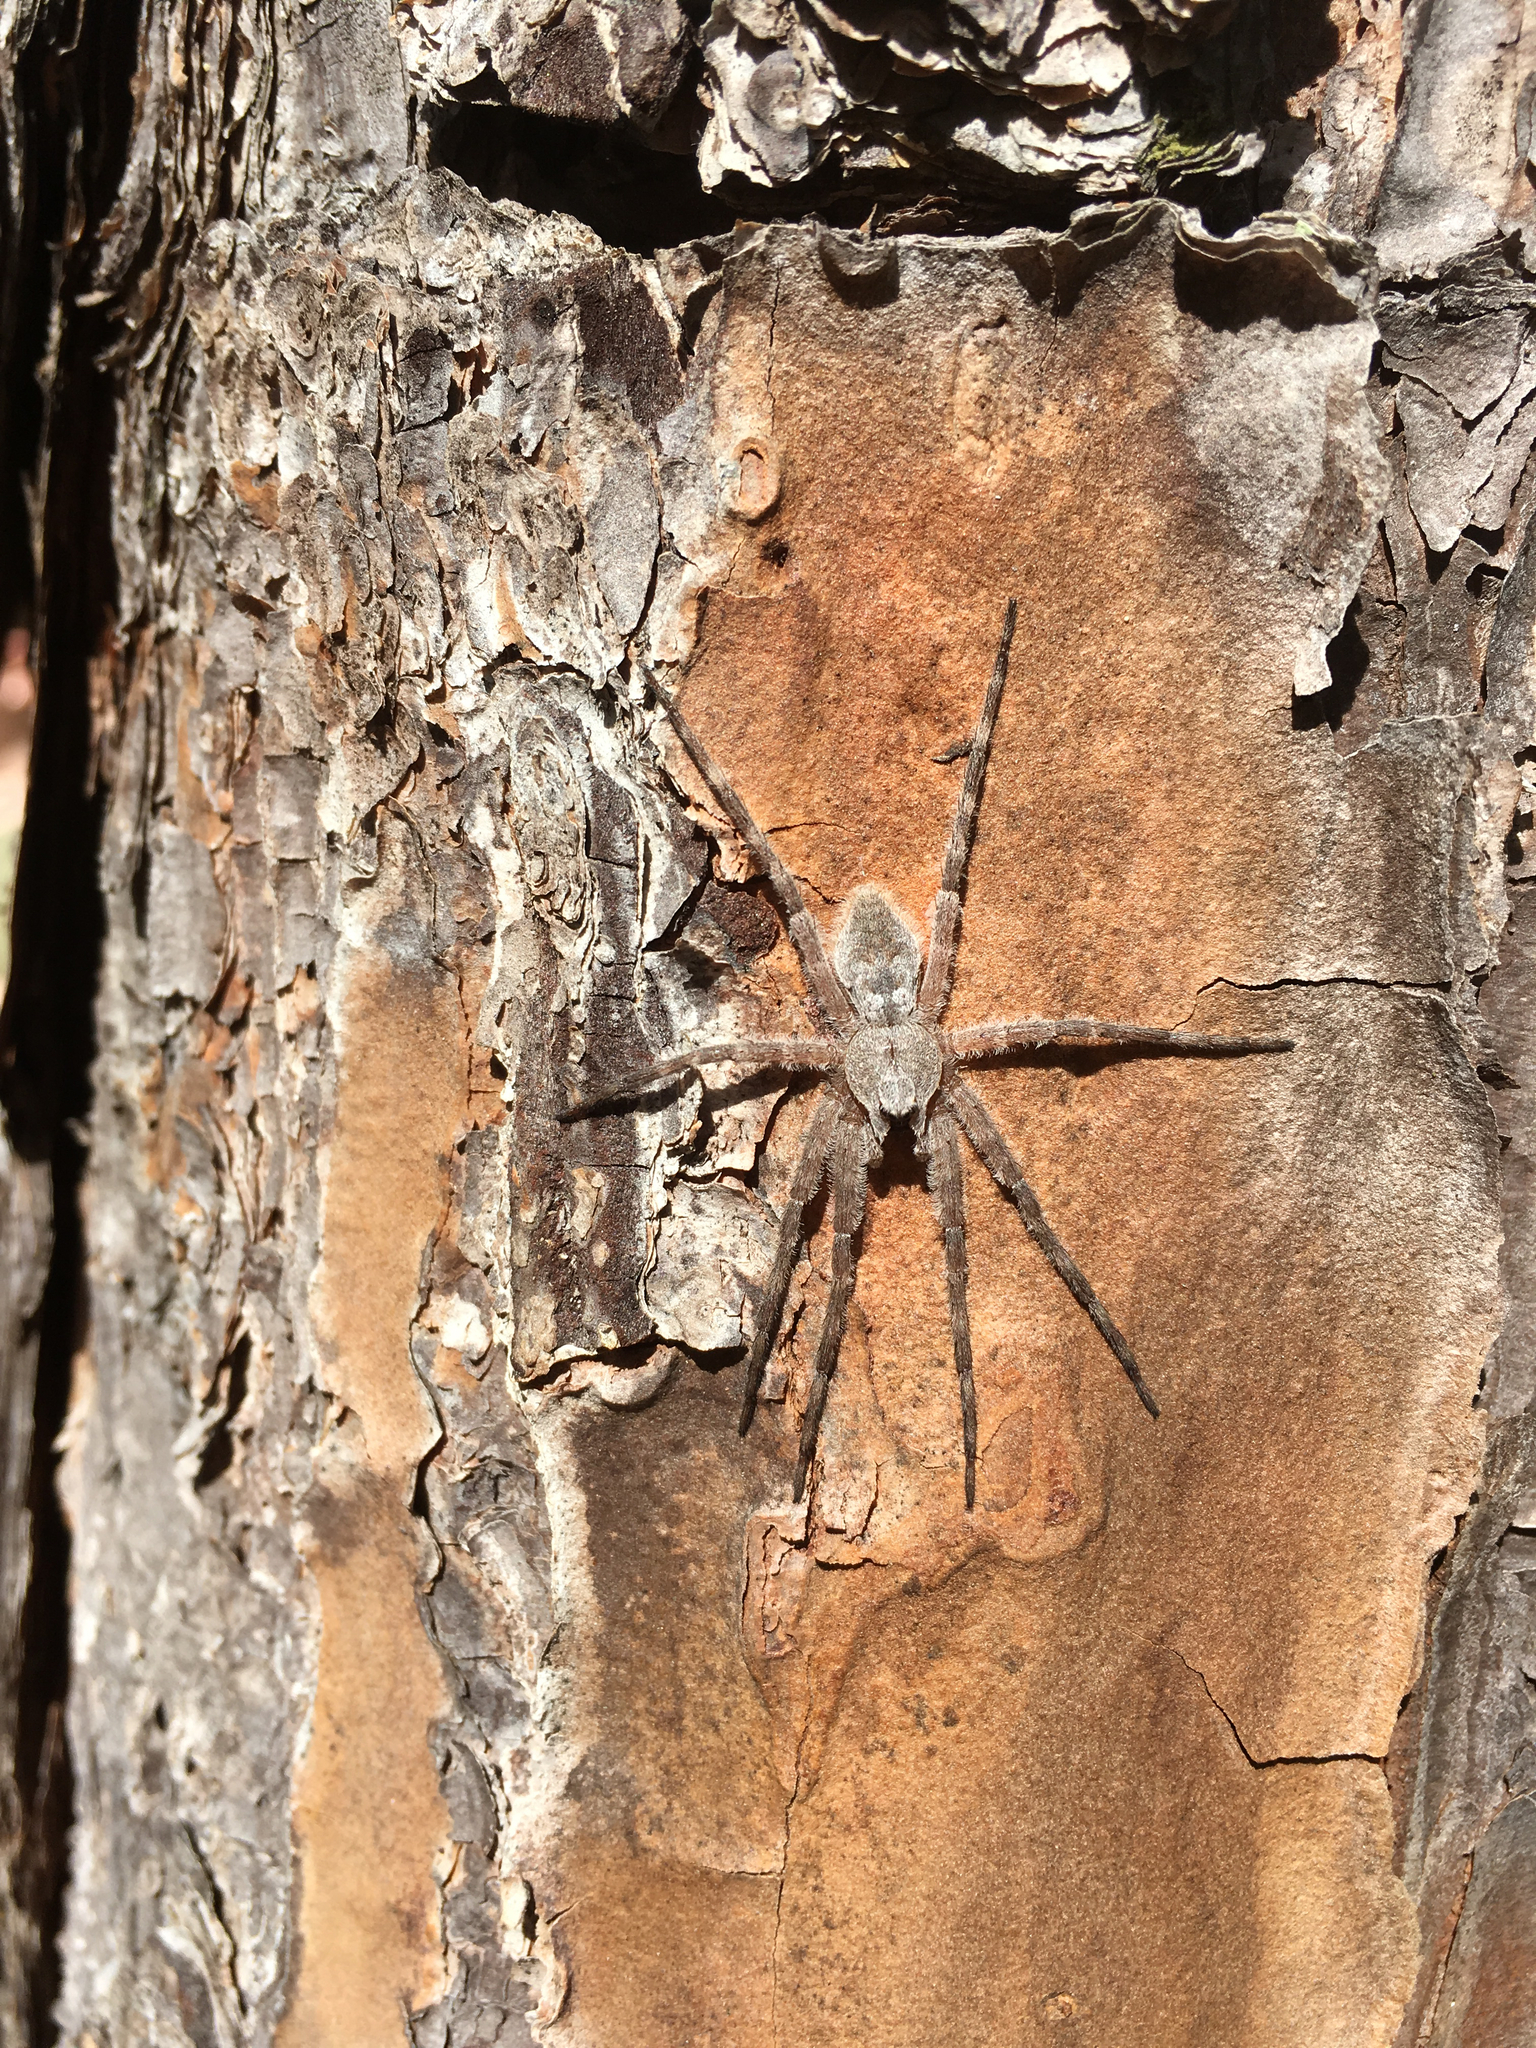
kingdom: Animalia
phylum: Arthropoda
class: Arachnida
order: Araneae
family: Pisauridae
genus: Dolomedes
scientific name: Dolomedes albineus
